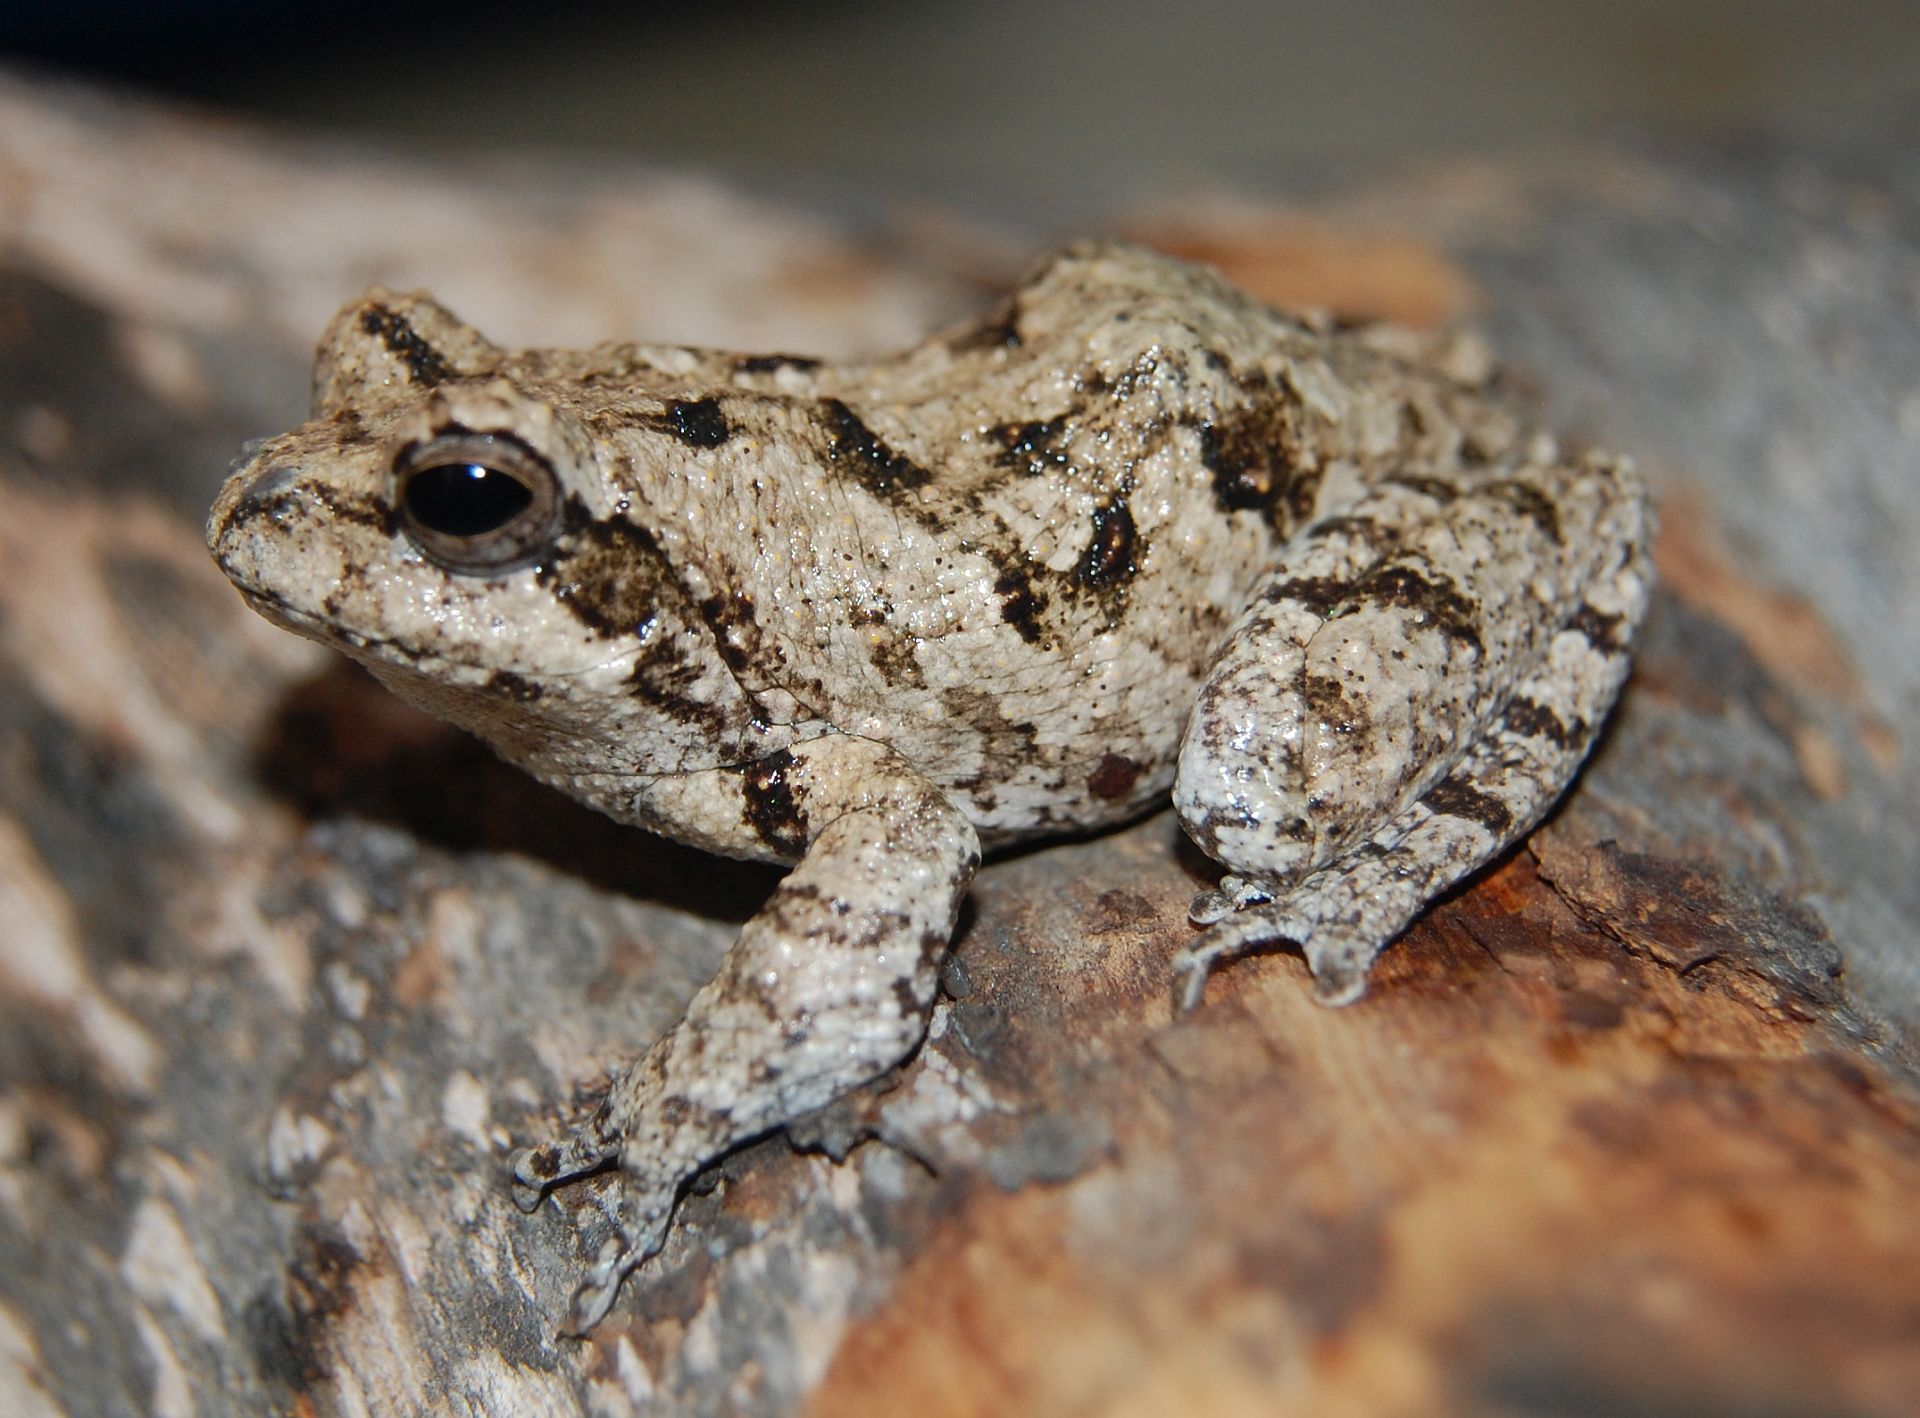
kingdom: Animalia
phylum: Chordata
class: Amphibia
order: Anura
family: Rhacophoridae
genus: Chiromantis
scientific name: Chiromantis kelleri
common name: Keller's foam-nest frog
